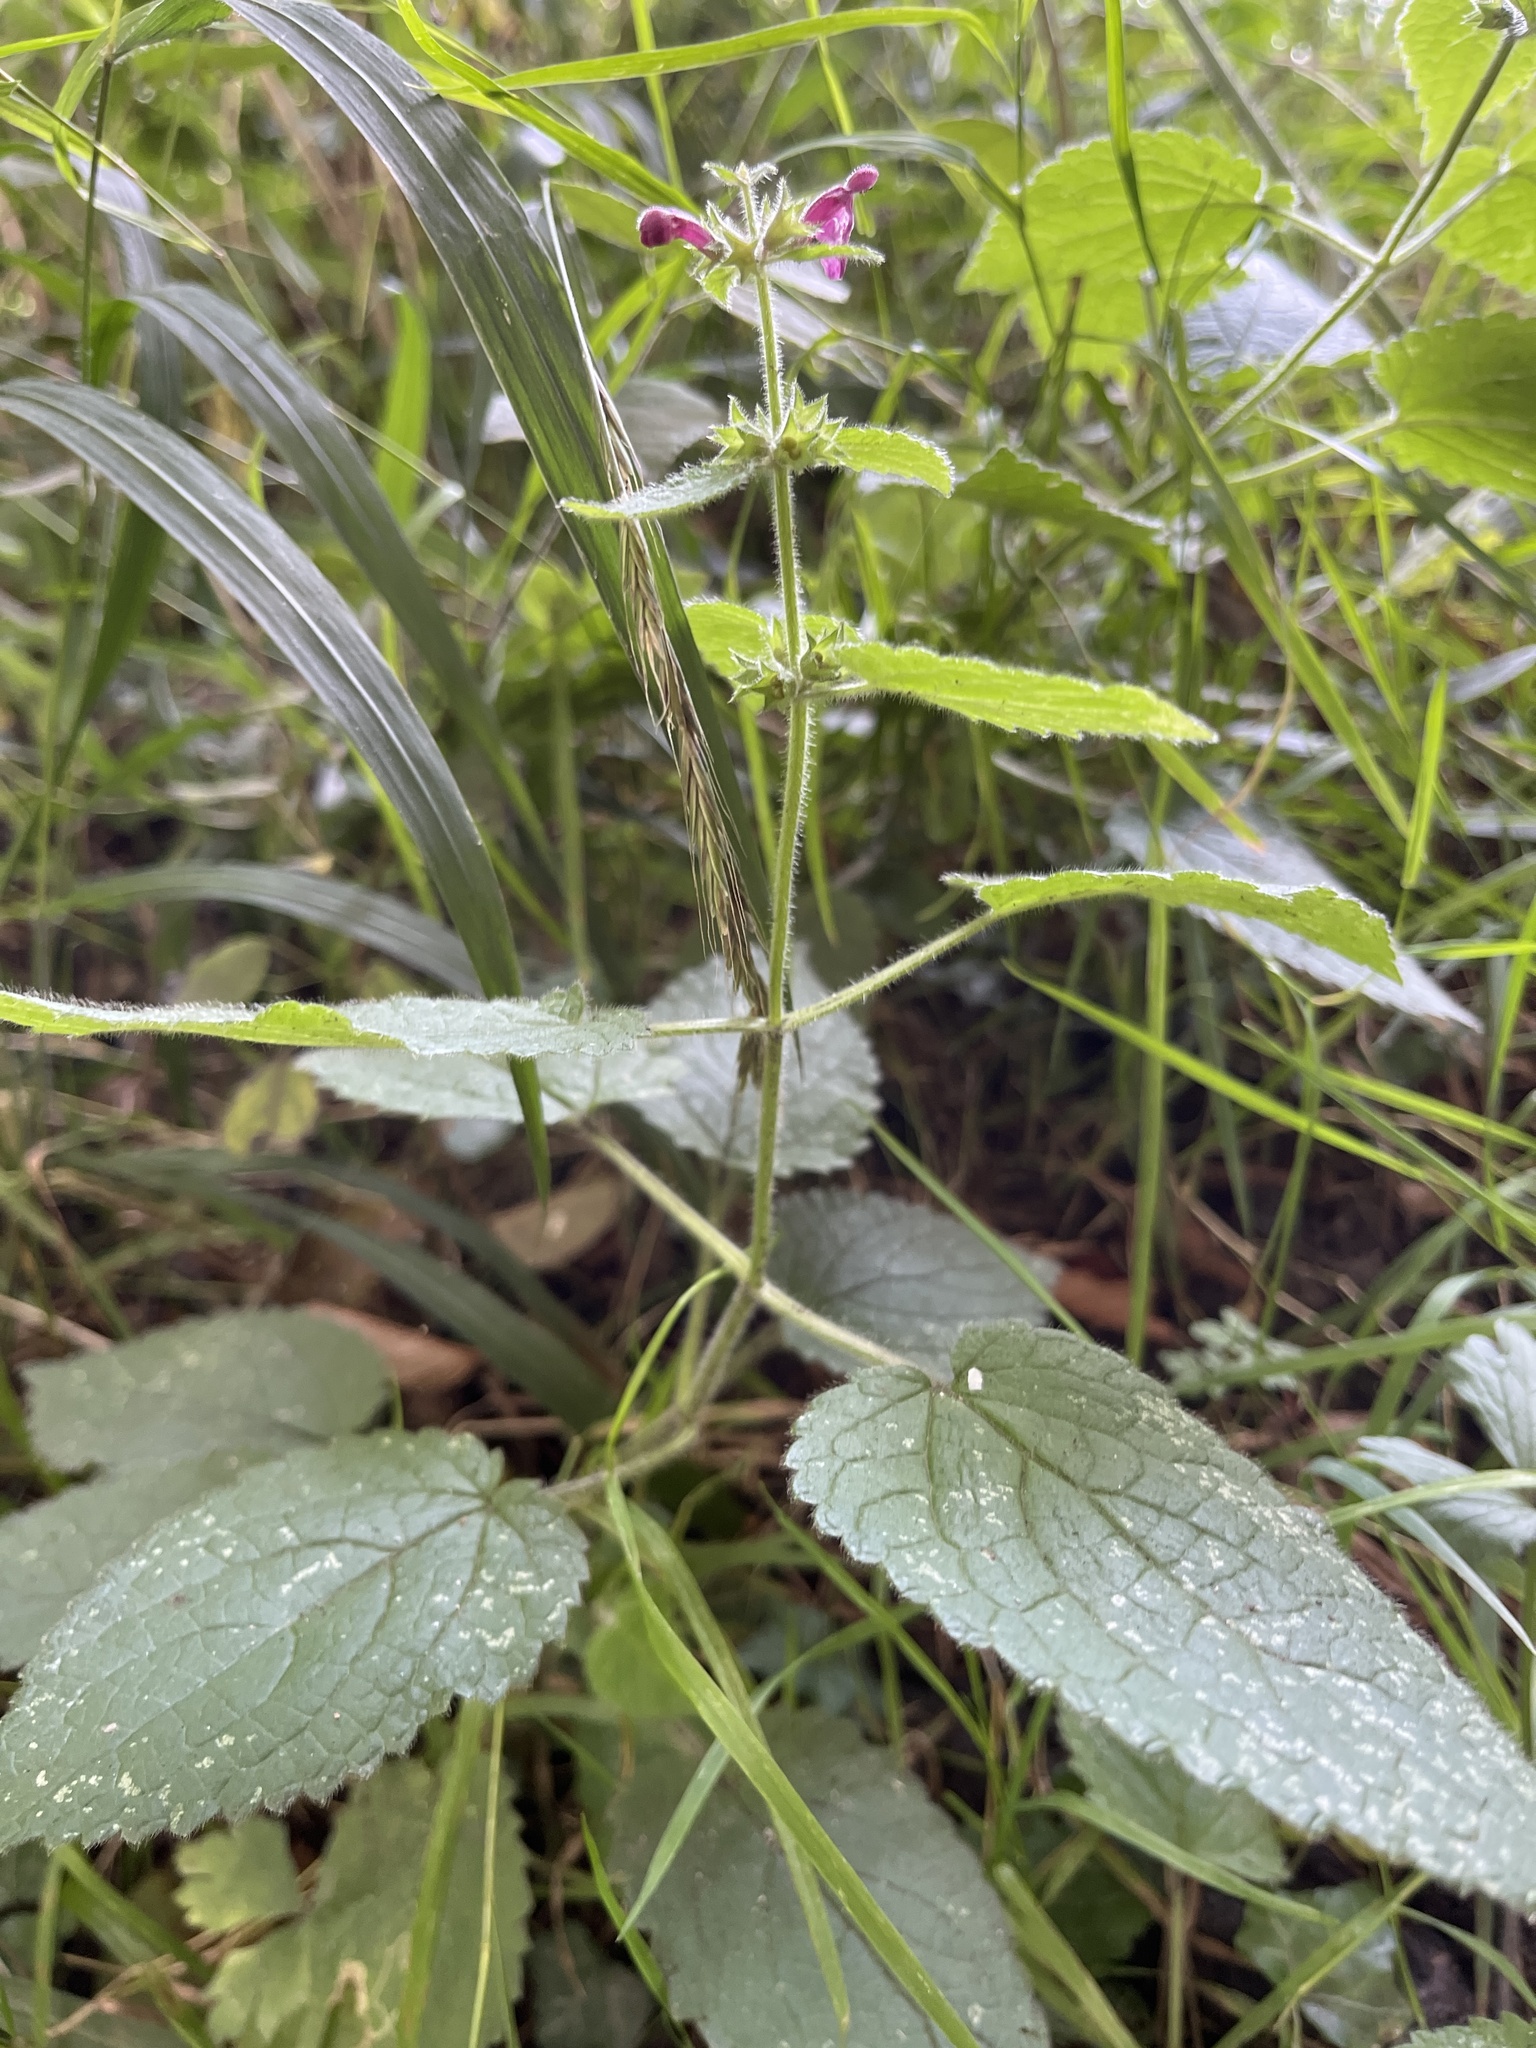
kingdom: Plantae
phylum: Tracheophyta
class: Magnoliopsida
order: Lamiales
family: Lamiaceae
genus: Stachys
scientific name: Stachys sylvatica
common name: Hedge woundwort
